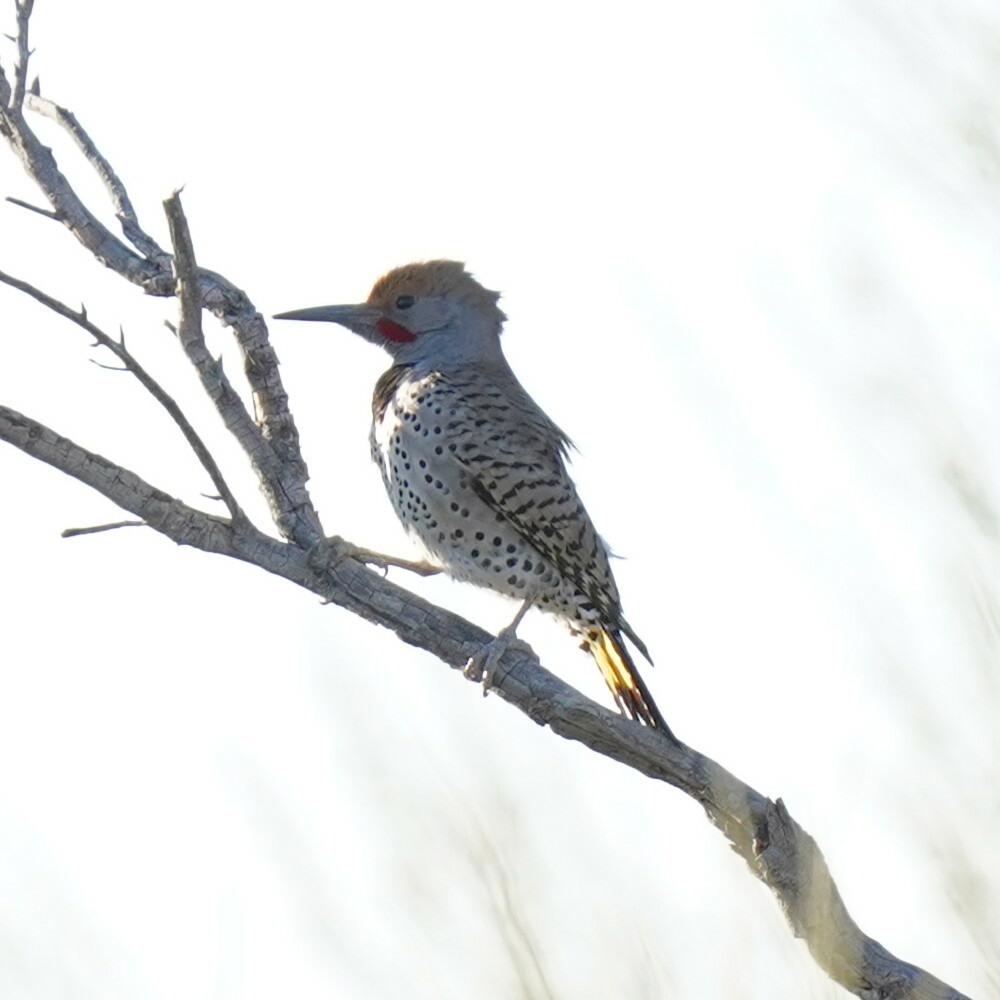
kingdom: Animalia
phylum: Chordata
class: Aves
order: Piciformes
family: Picidae
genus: Colaptes
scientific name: Colaptes chrysoides
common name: Gilded flicker
